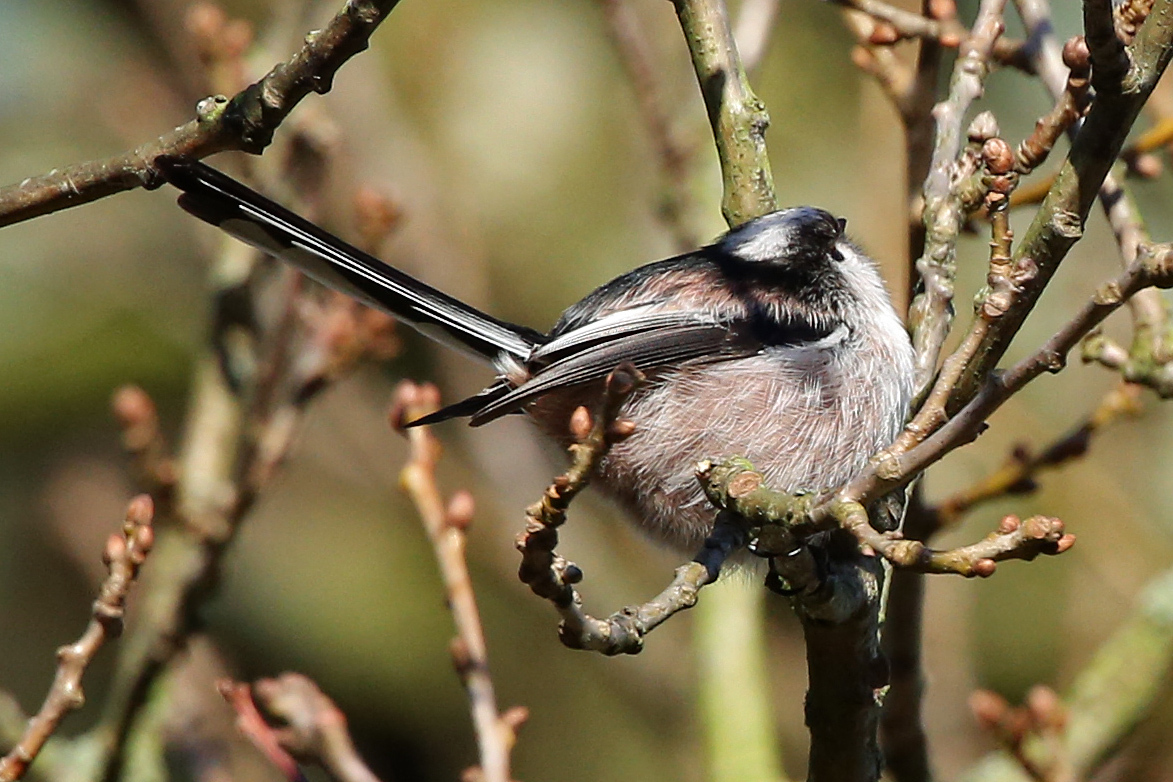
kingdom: Animalia
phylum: Chordata
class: Aves
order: Passeriformes
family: Aegithalidae
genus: Aegithalos
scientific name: Aegithalos caudatus
